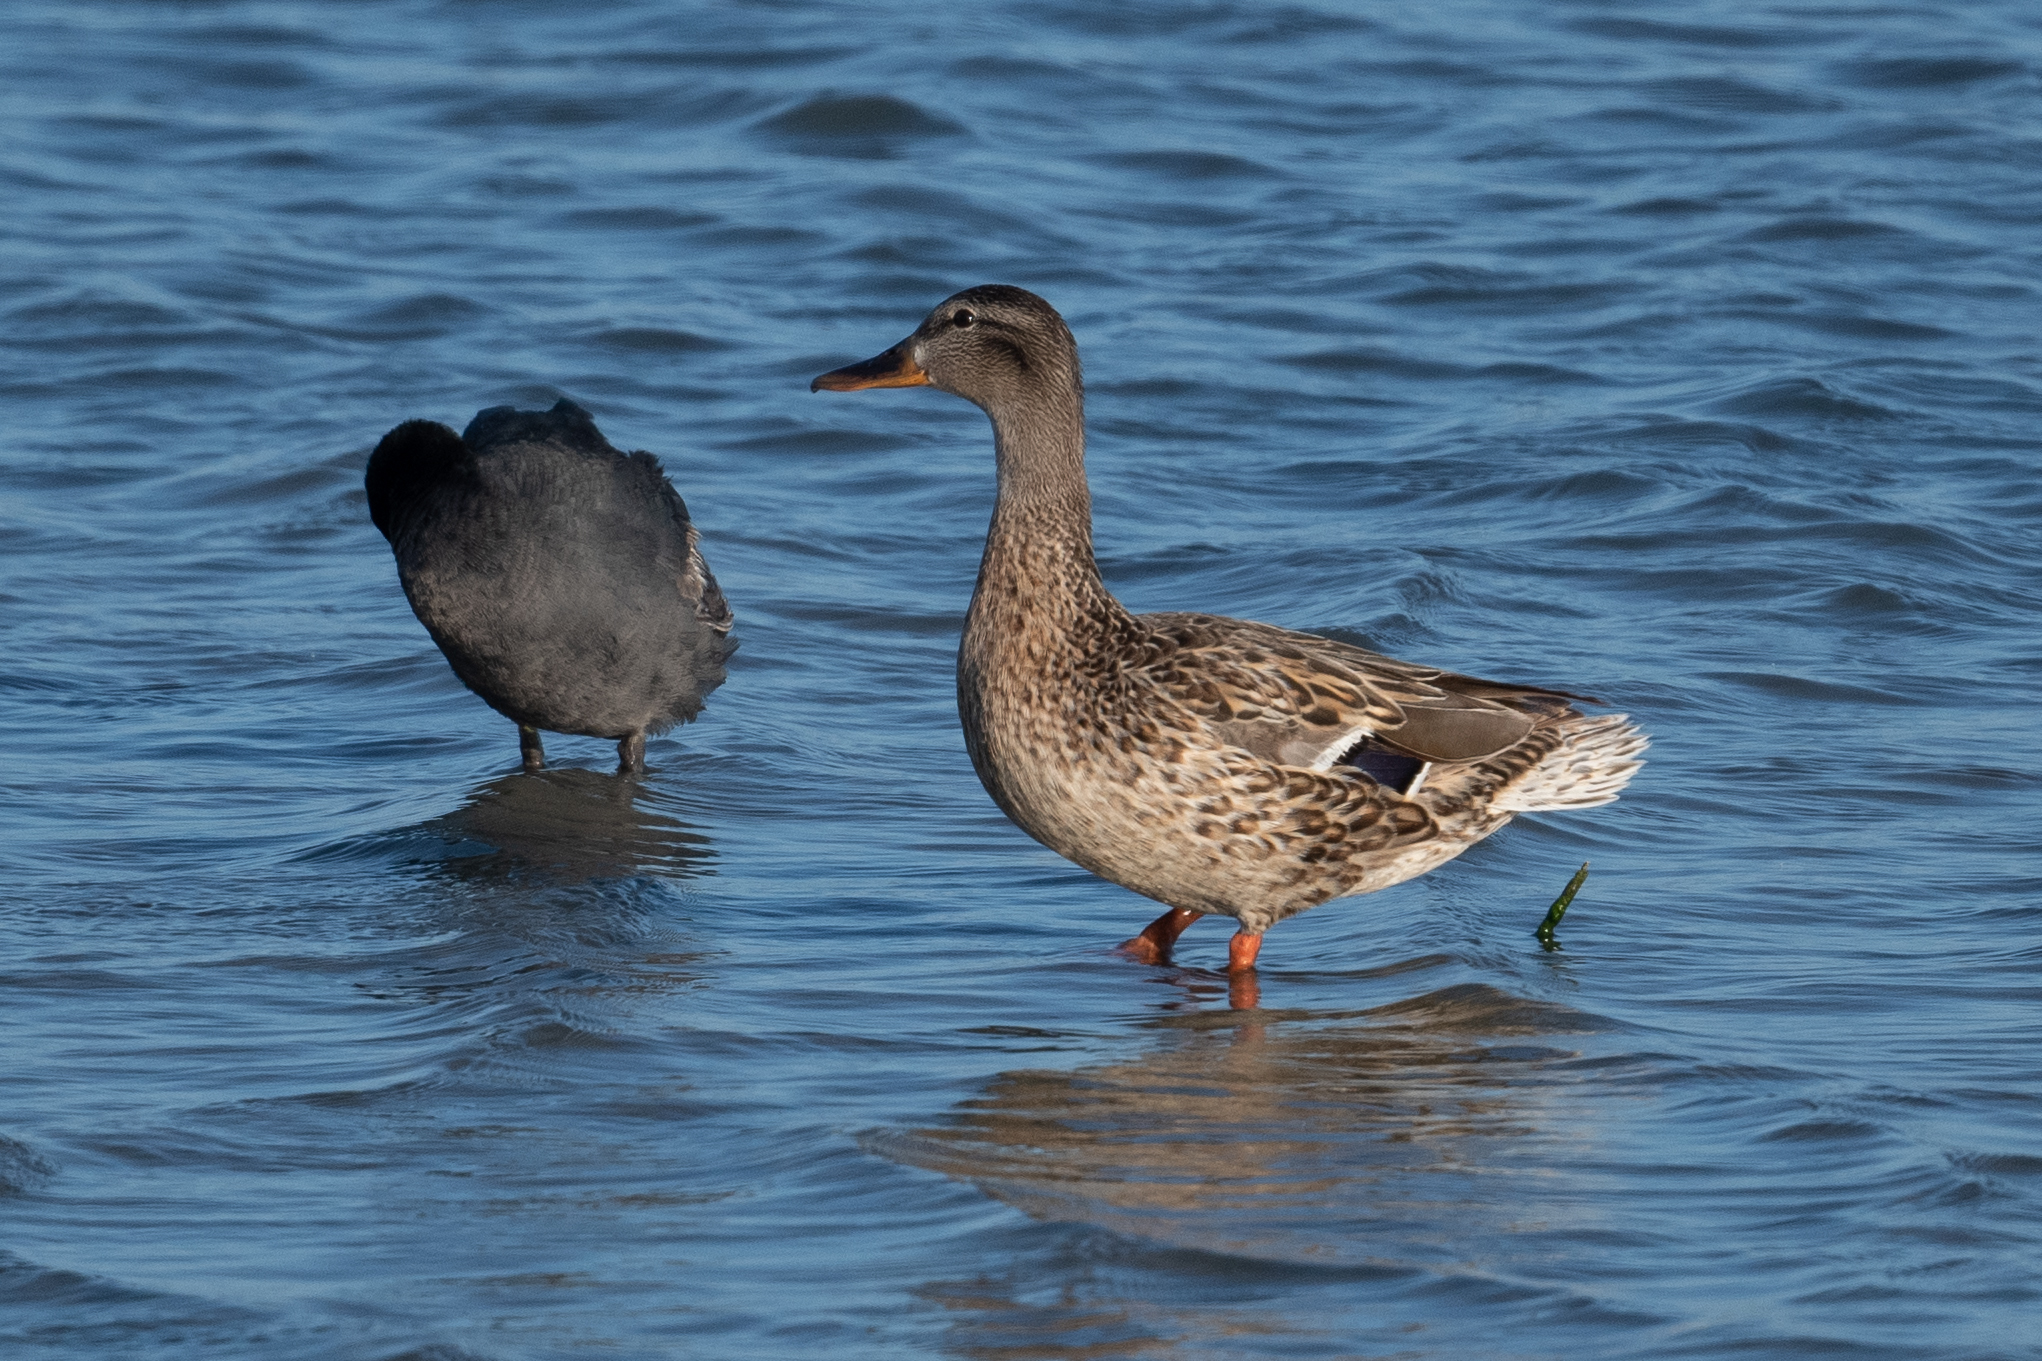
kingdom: Animalia
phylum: Chordata
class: Aves
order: Anseriformes
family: Anatidae
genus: Anas
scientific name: Anas platyrhynchos
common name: Mallard
